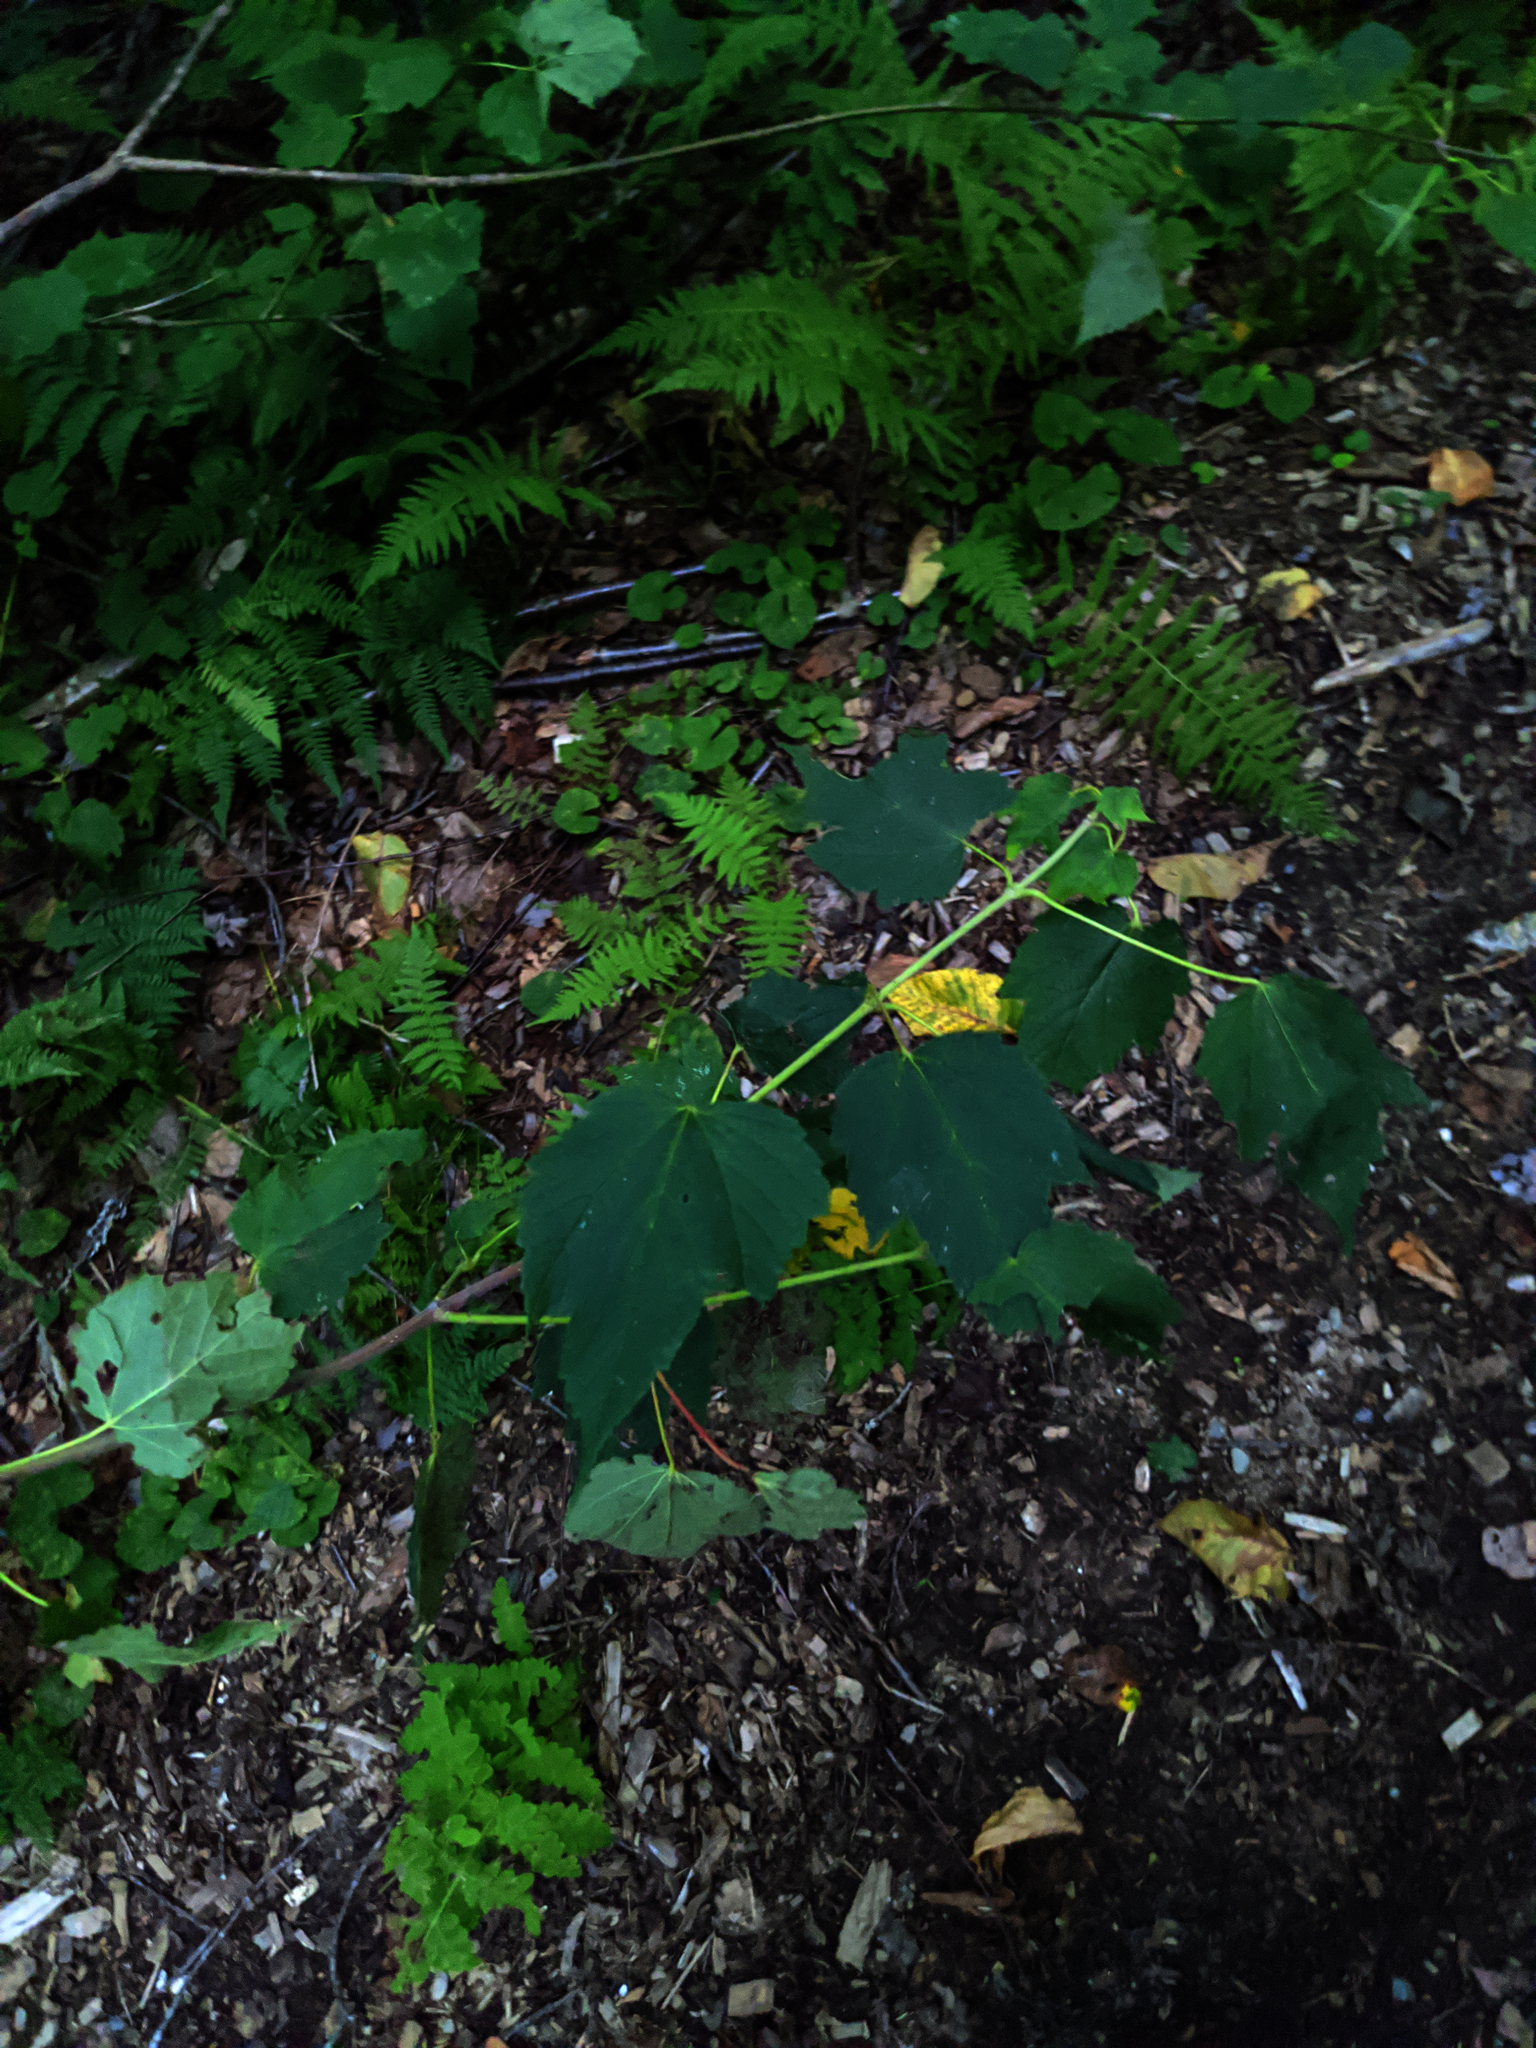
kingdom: Plantae
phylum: Tracheophyta
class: Magnoliopsida
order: Sapindales
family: Sapindaceae
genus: Acer
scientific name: Acer spicatum
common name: Mountain maple
